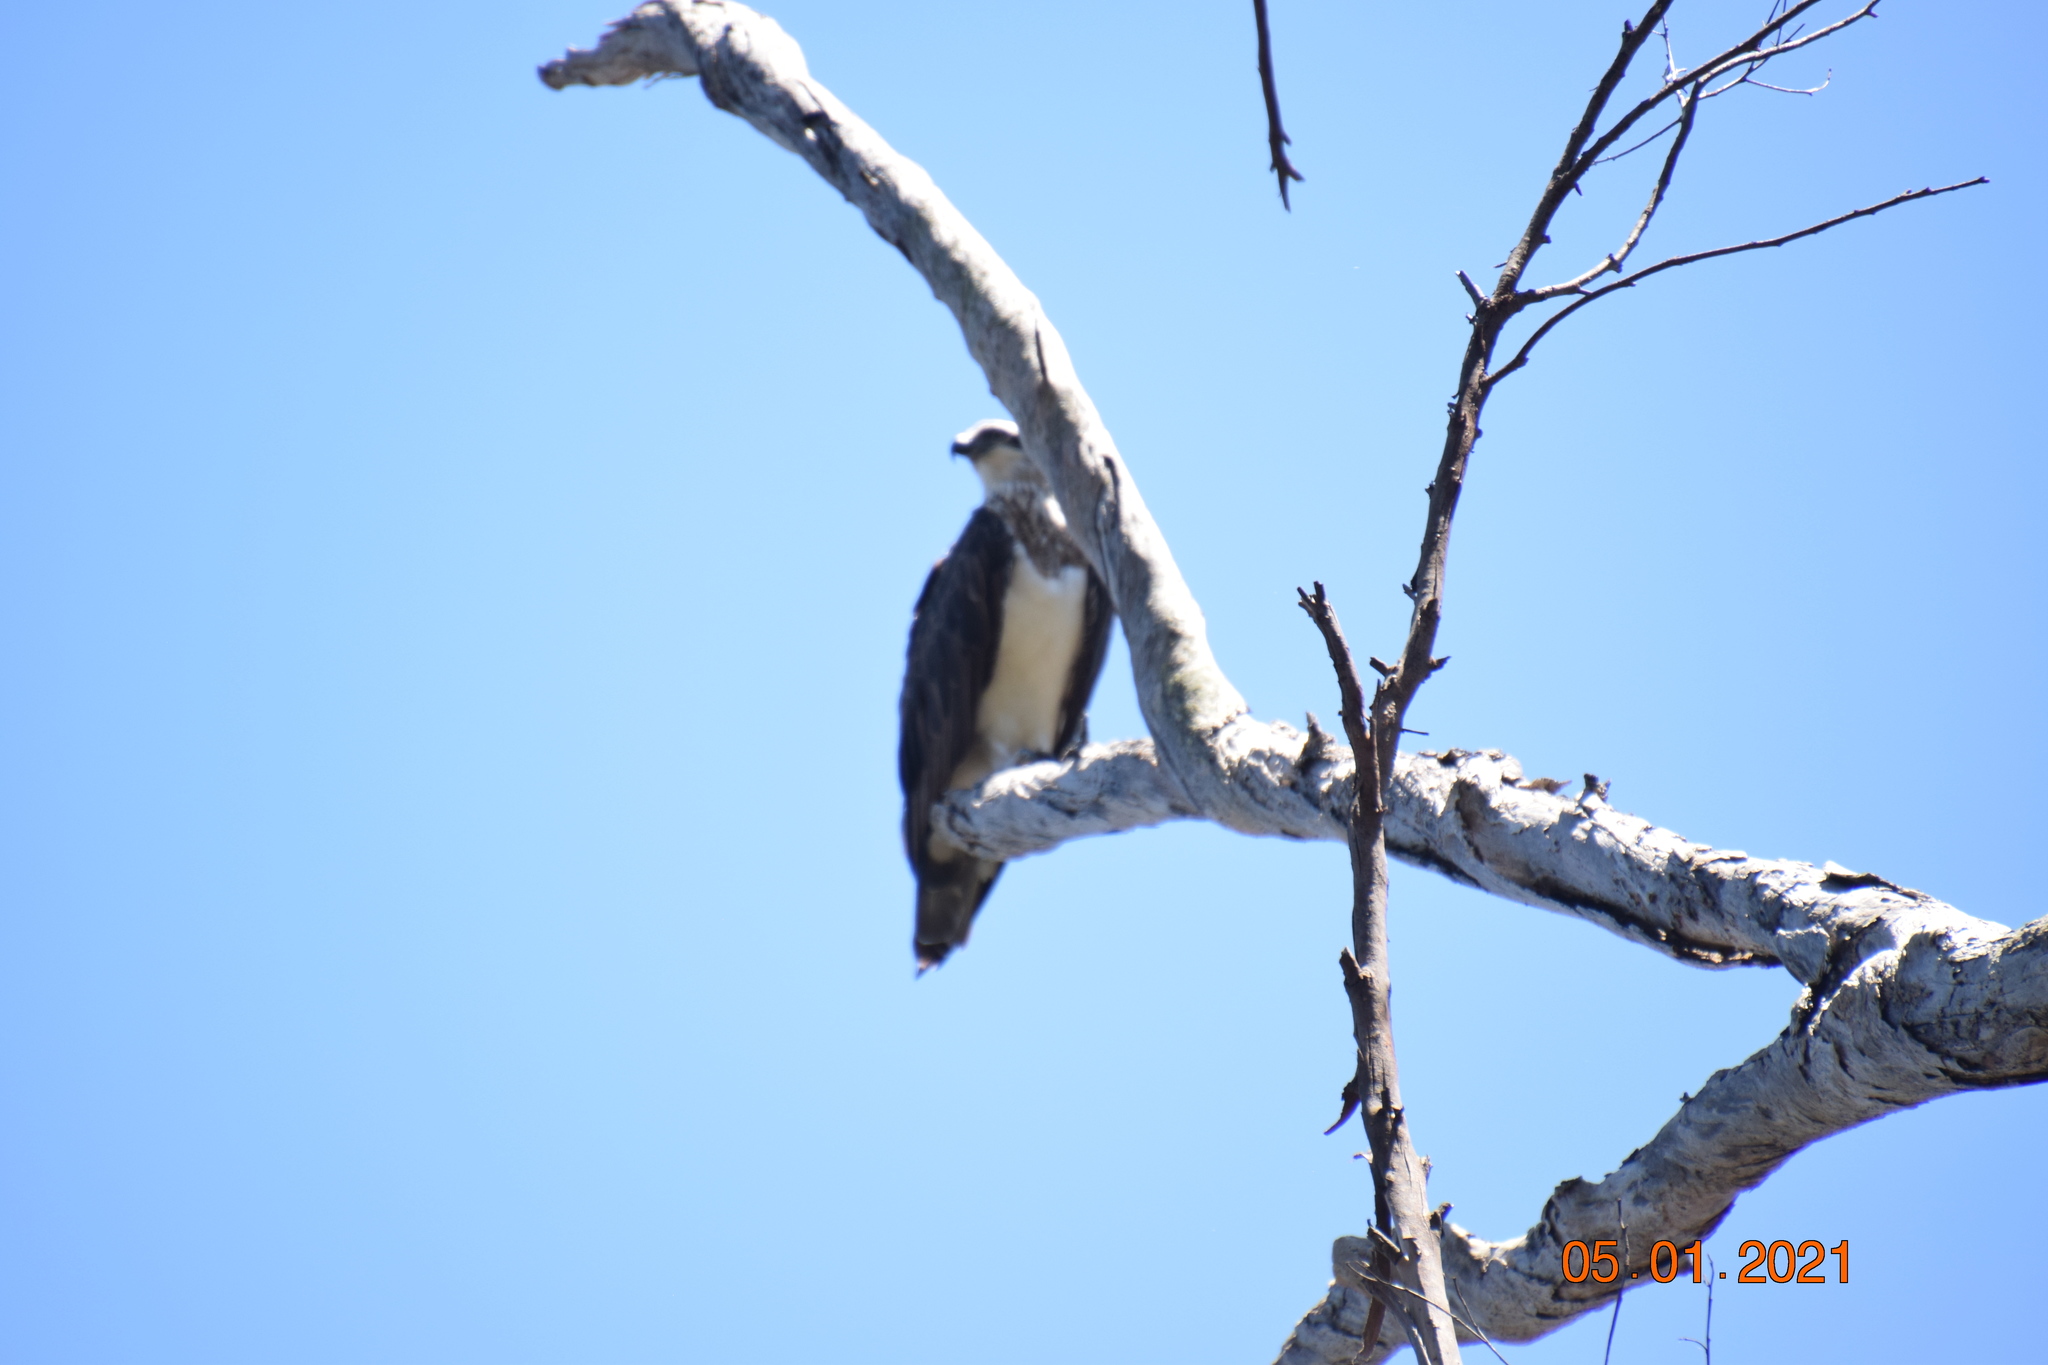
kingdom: Animalia
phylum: Chordata
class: Aves
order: Accipitriformes
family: Pandionidae
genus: Pandion
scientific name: Pandion haliaetus
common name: Osprey
